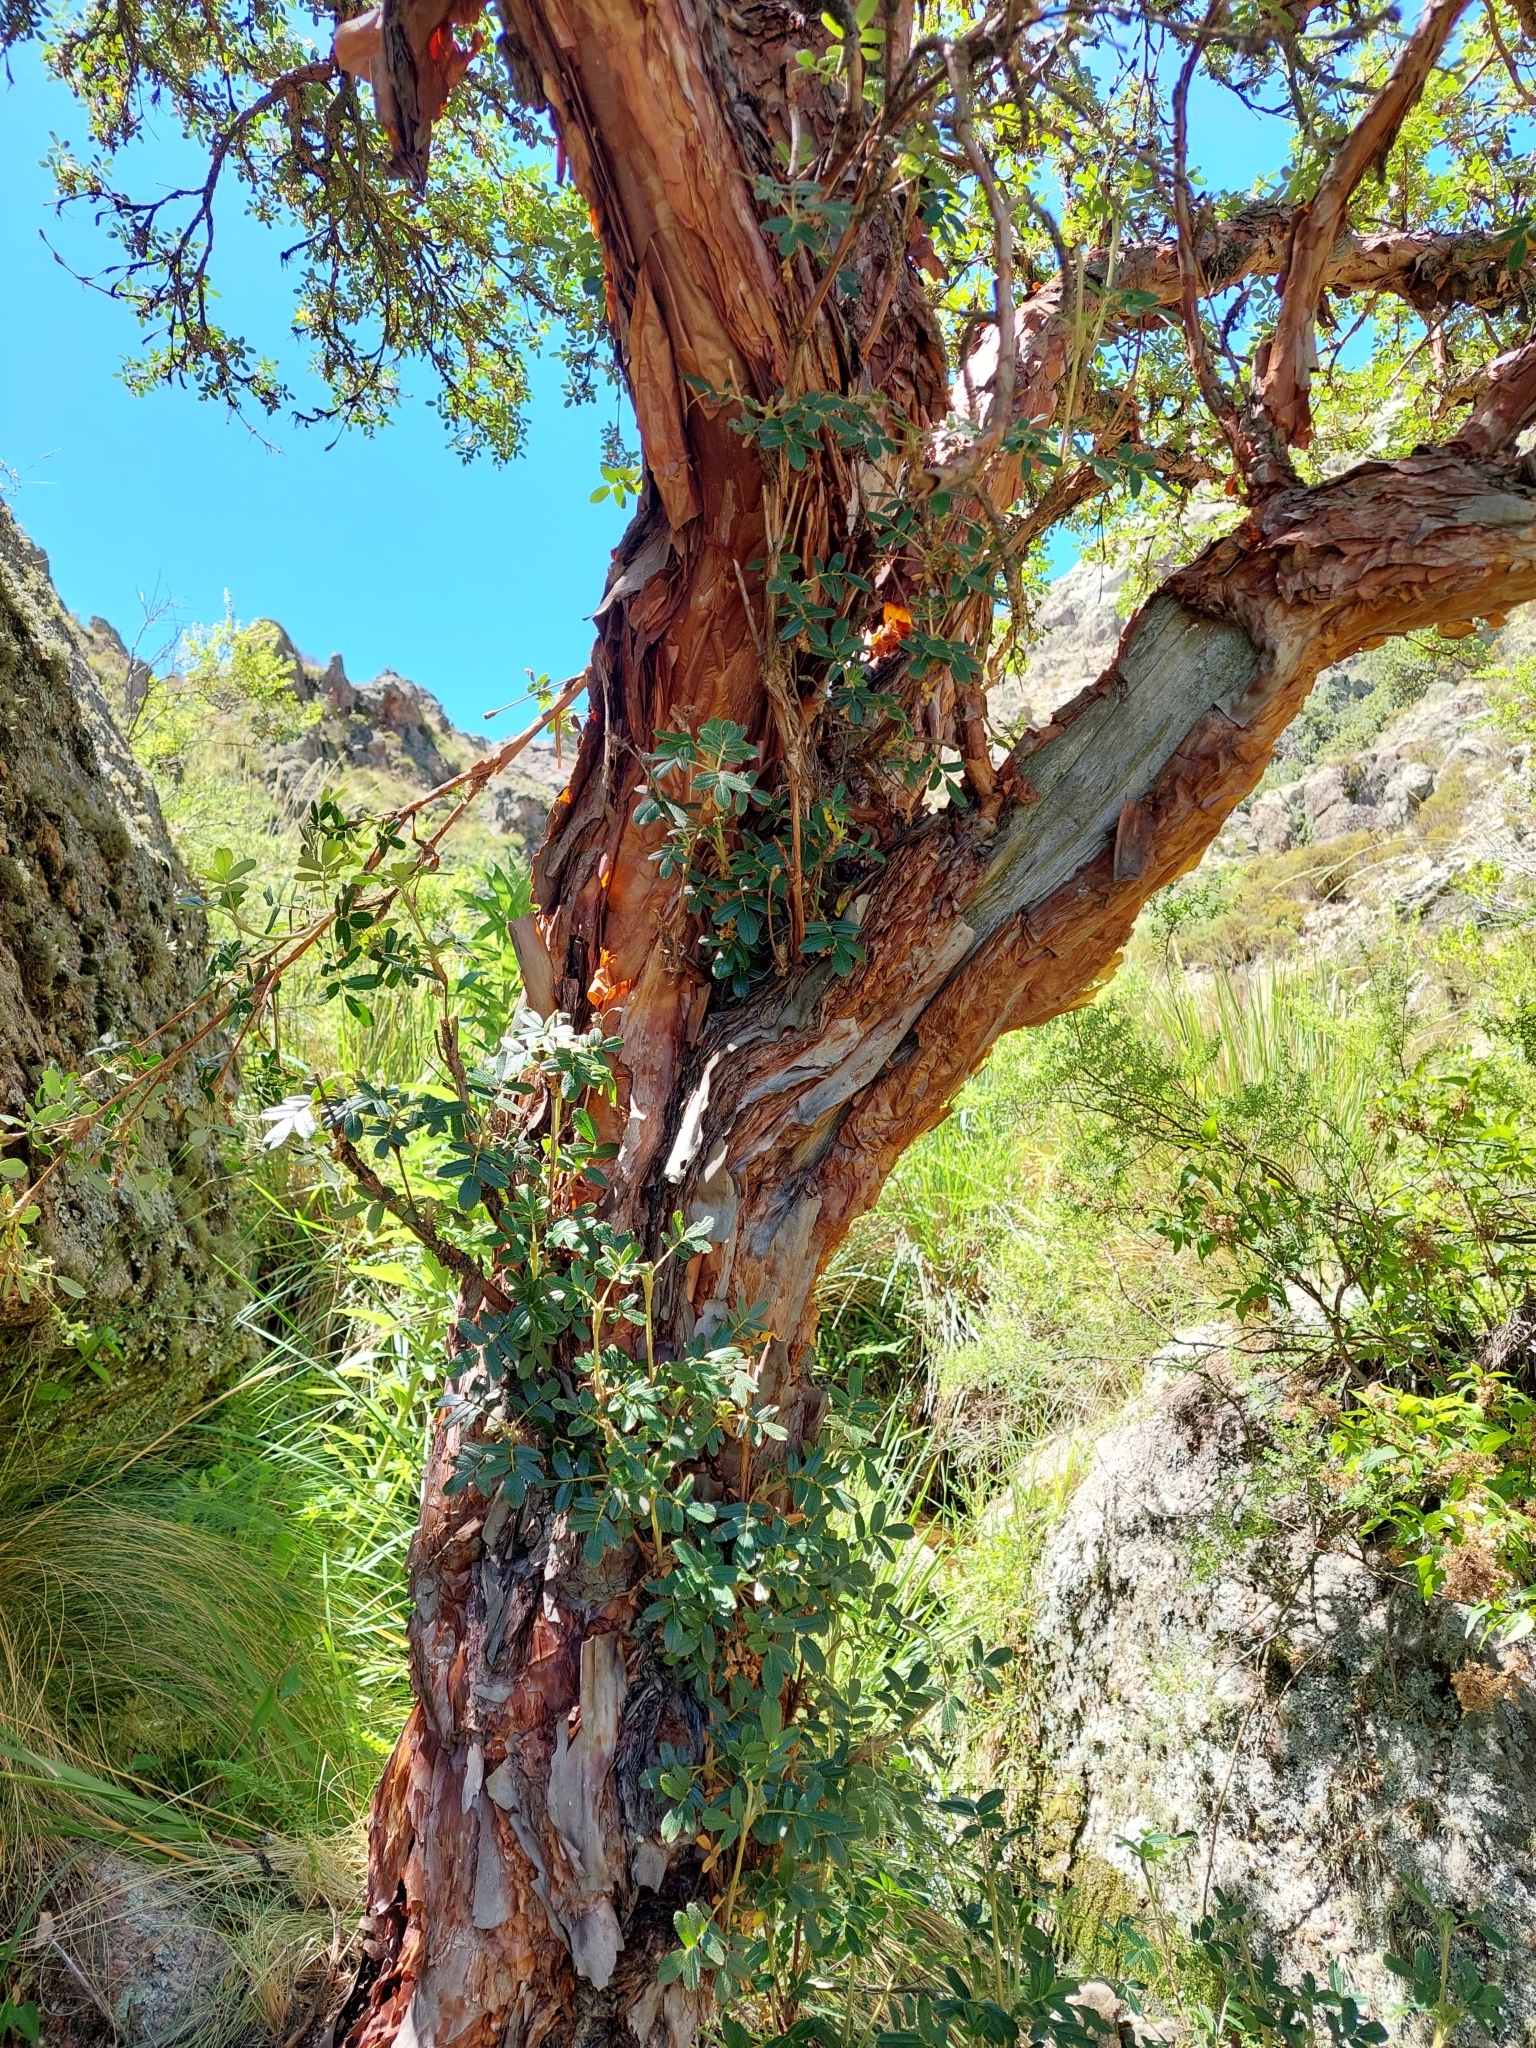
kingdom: Plantae
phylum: Tracheophyta
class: Magnoliopsida
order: Rosales
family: Rosaceae
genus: Polylepis
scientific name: Polylepis australis
